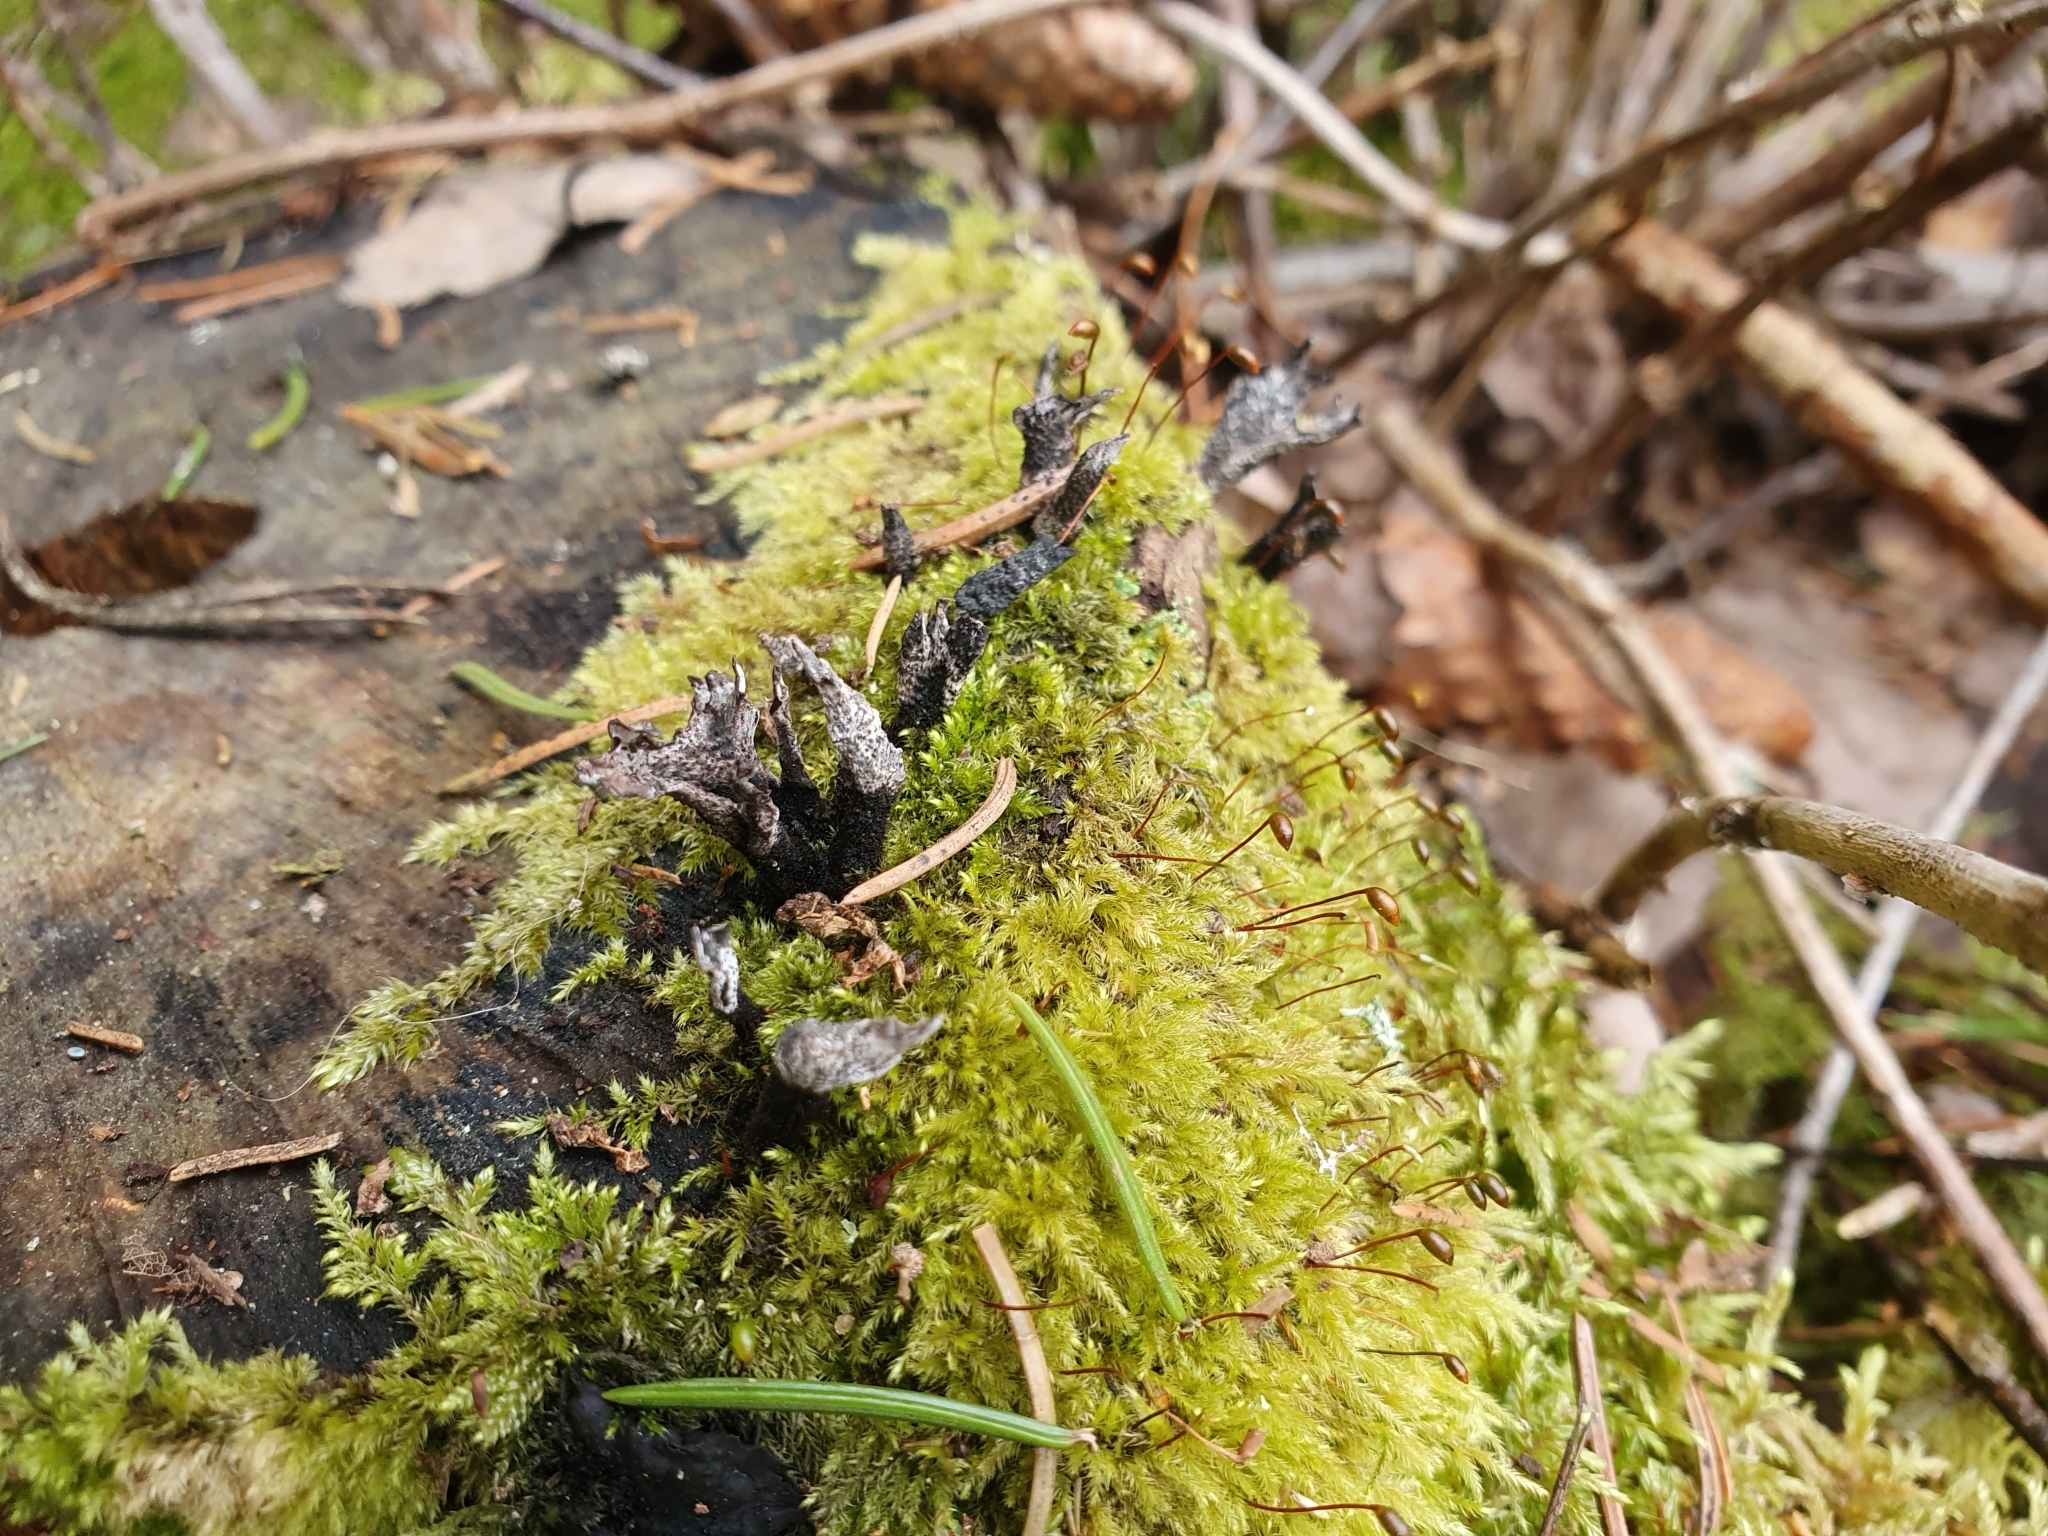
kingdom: Plantae
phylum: Bryophyta
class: Bryopsida
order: Hypnales
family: Brachytheciaceae
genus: Brachytheciastrum
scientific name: Brachytheciastrum velutinum
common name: Velvet feather-moss
